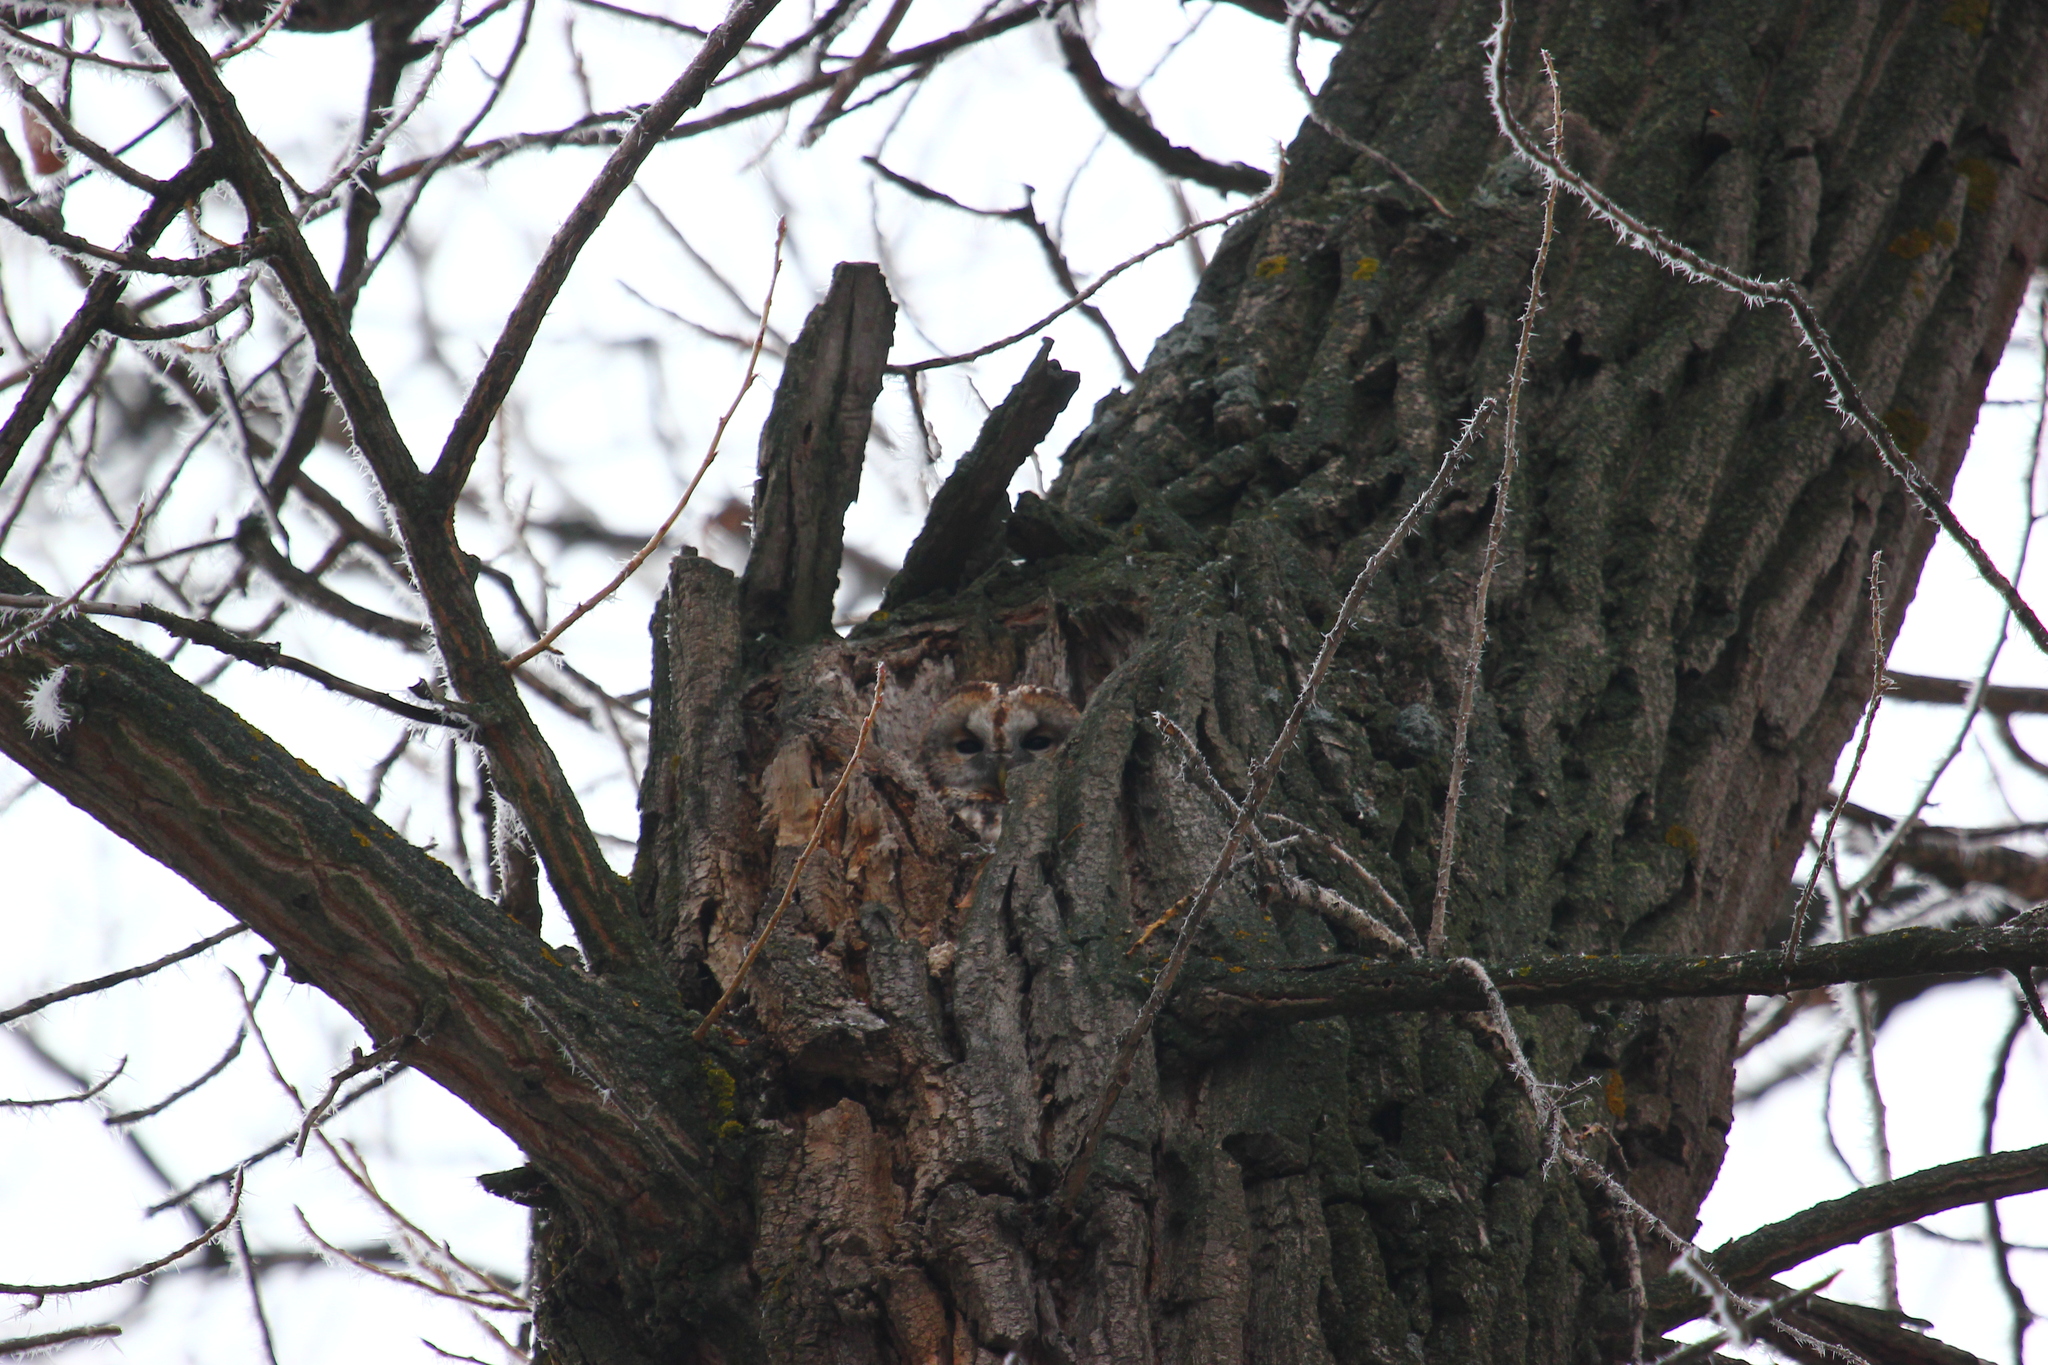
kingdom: Animalia
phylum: Chordata
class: Aves
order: Strigiformes
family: Strigidae
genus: Strix
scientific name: Strix aluco
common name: Tawny owl
